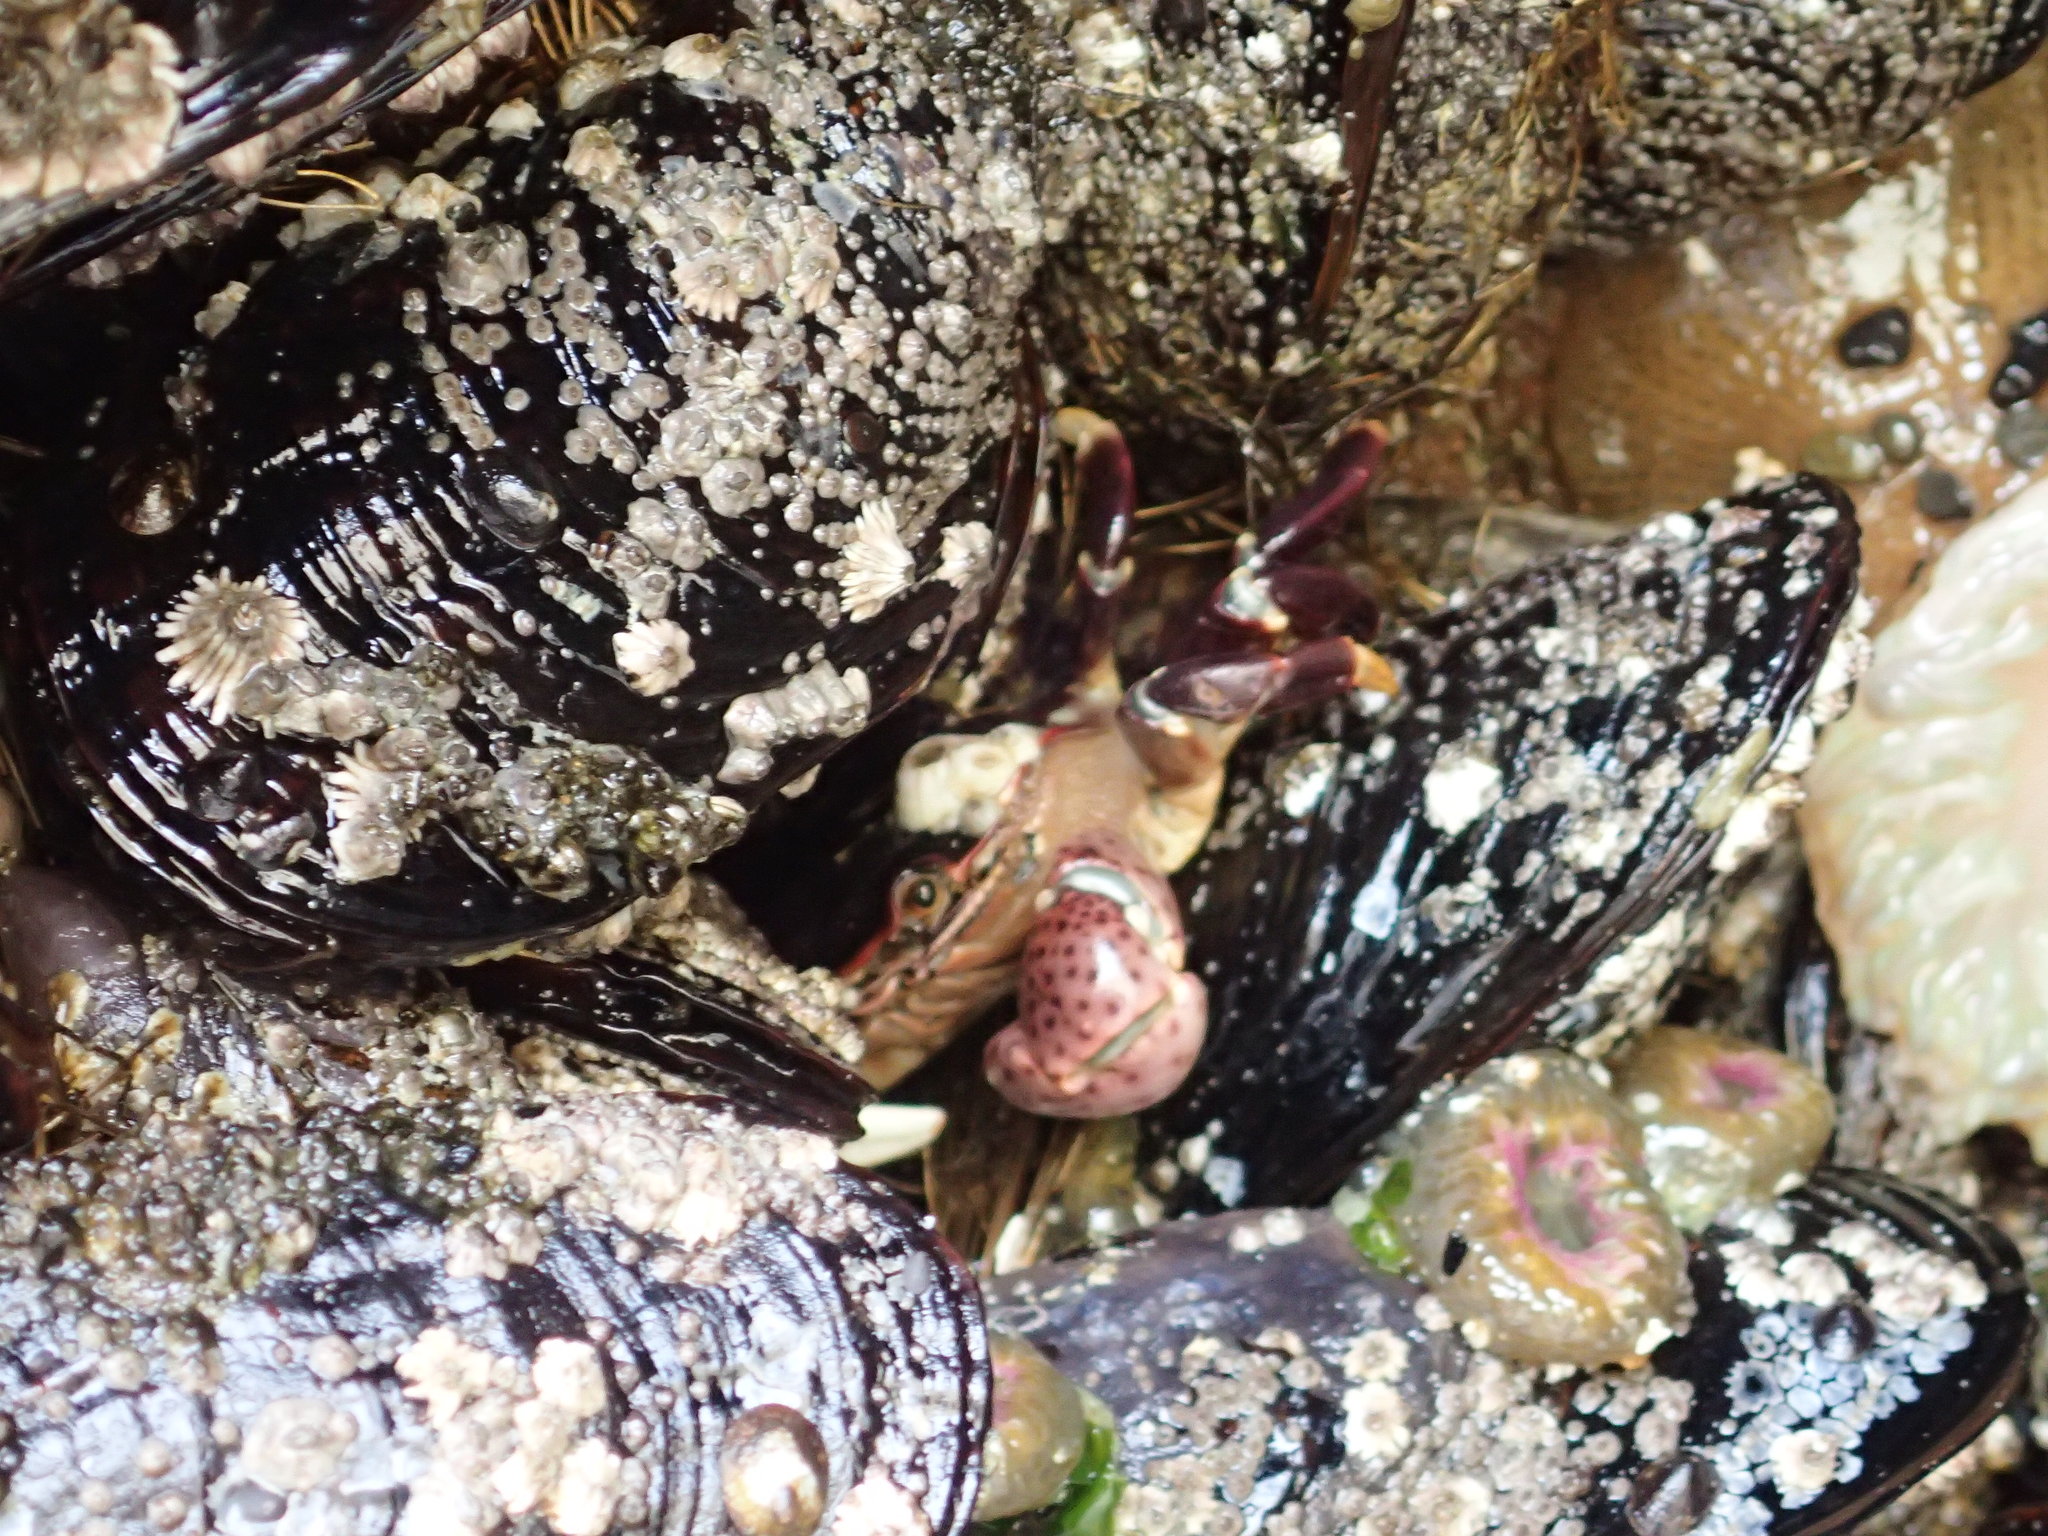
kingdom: Animalia
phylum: Arthropoda
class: Malacostraca
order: Decapoda
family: Varunidae
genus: Hemigrapsus
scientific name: Hemigrapsus nudus
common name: Purple shore crab
